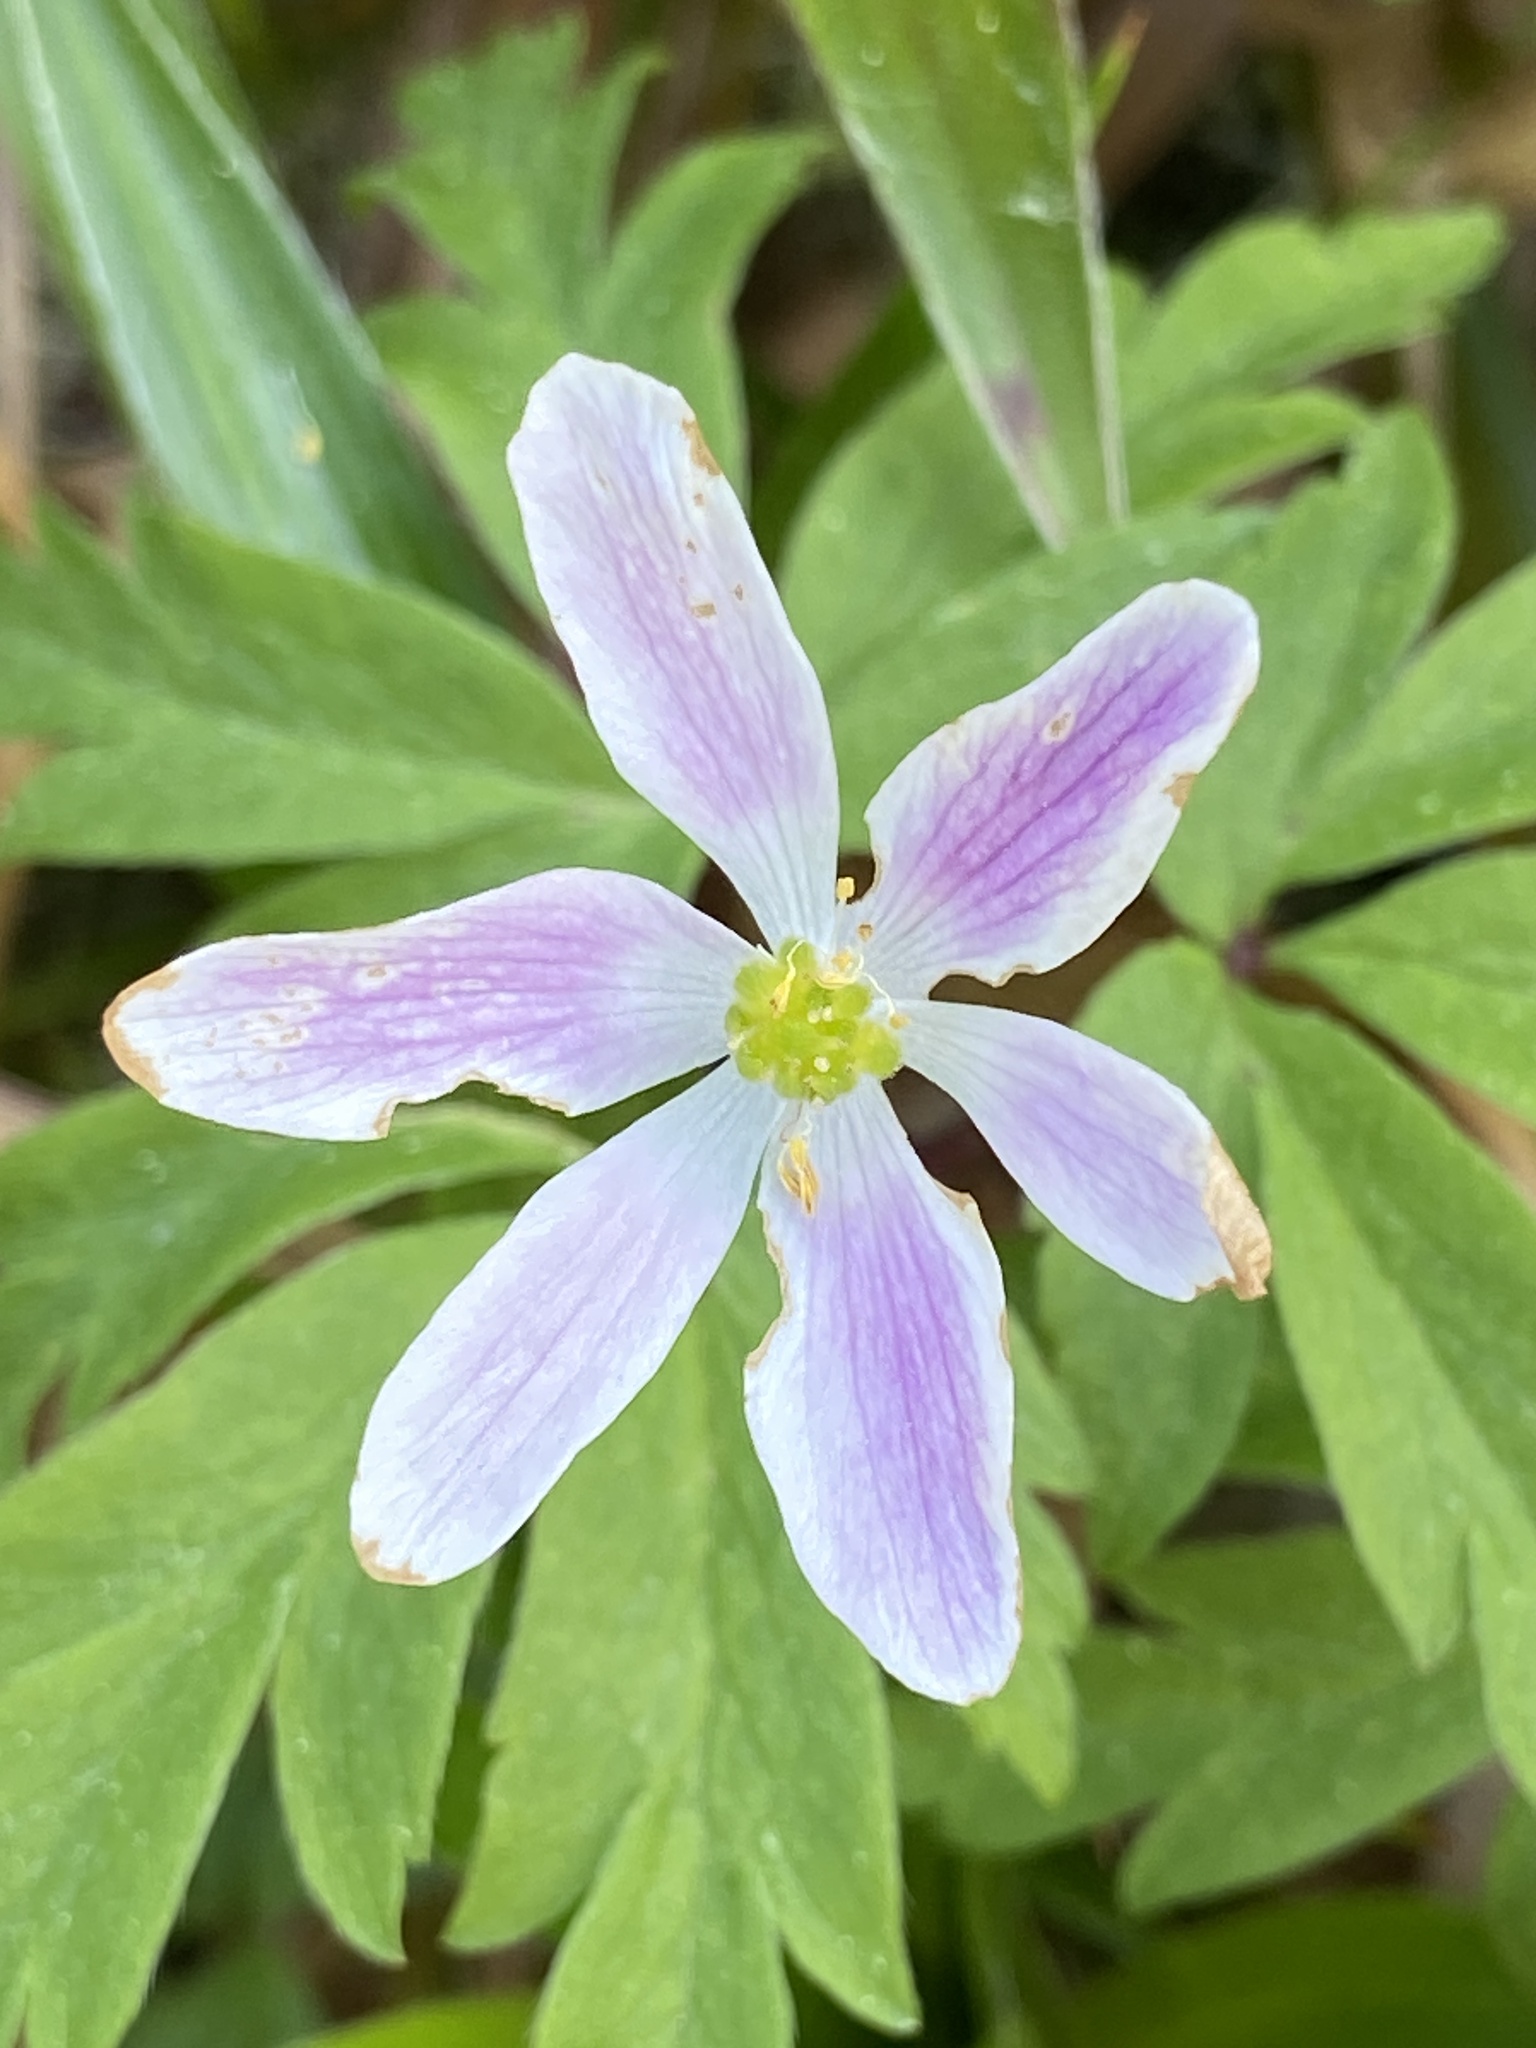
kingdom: Plantae
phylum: Tracheophyta
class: Magnoliopsida
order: Ranunculales
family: Ranunculaceae
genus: Anemone
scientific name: Anemone nemorosa
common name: Wood anemone
